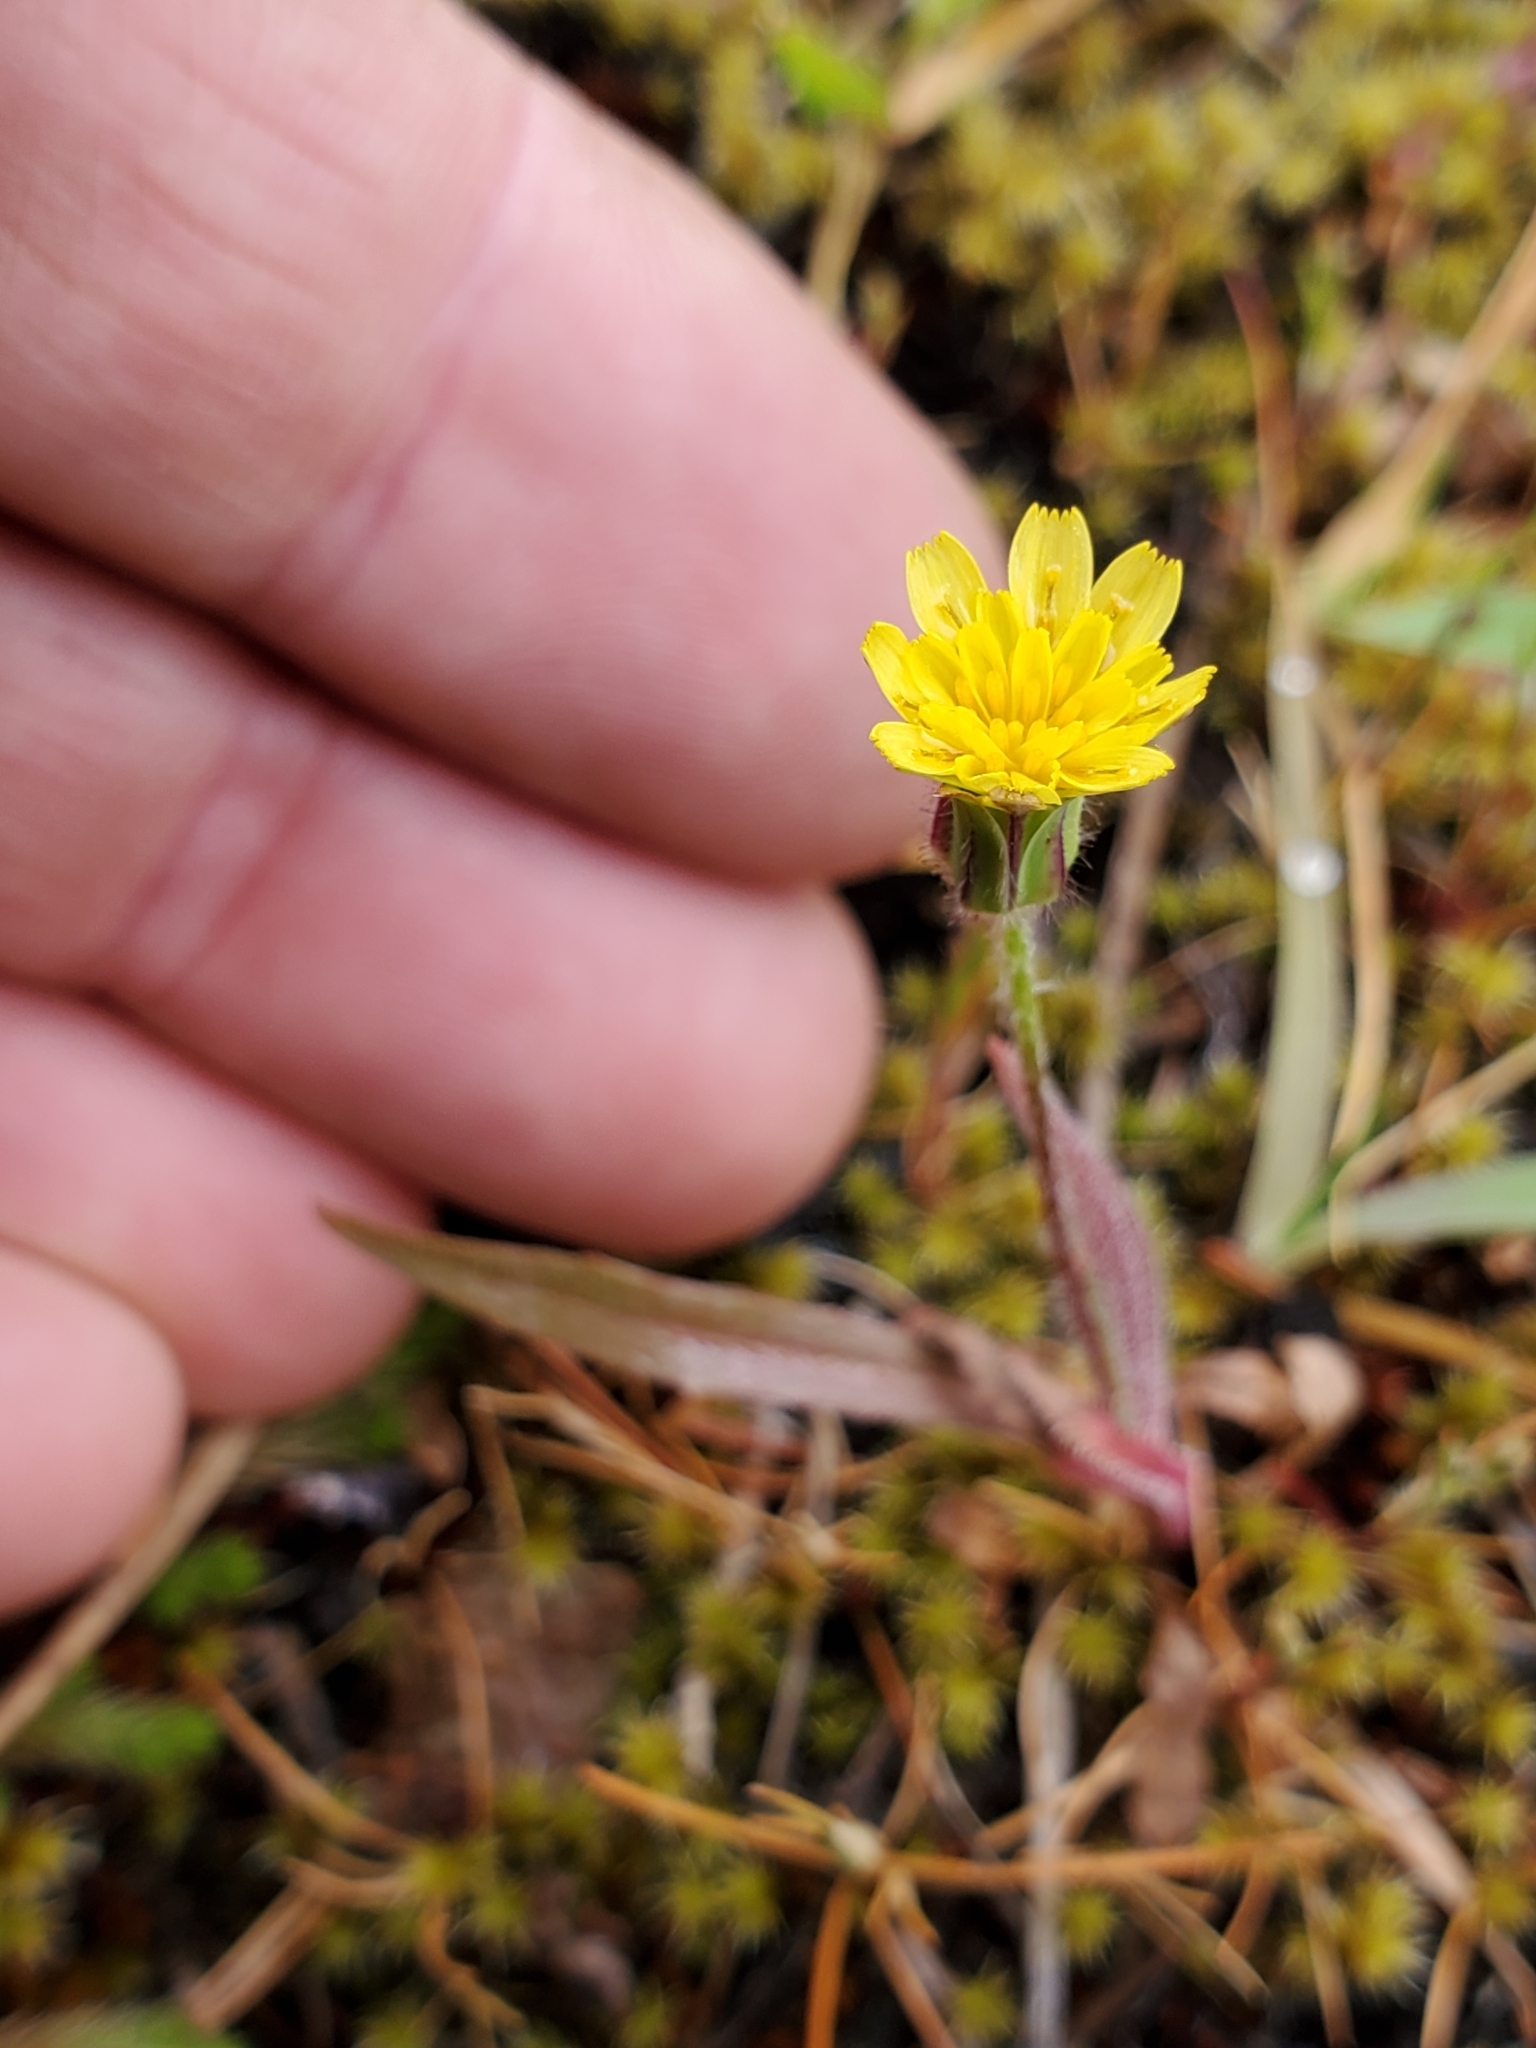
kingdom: Plantae
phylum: Tracheophyta
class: Magnoliopsida
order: Asterales
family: Asteraceae
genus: Agoseris
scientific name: Agoseris heterophylla
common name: Annual agoseris
